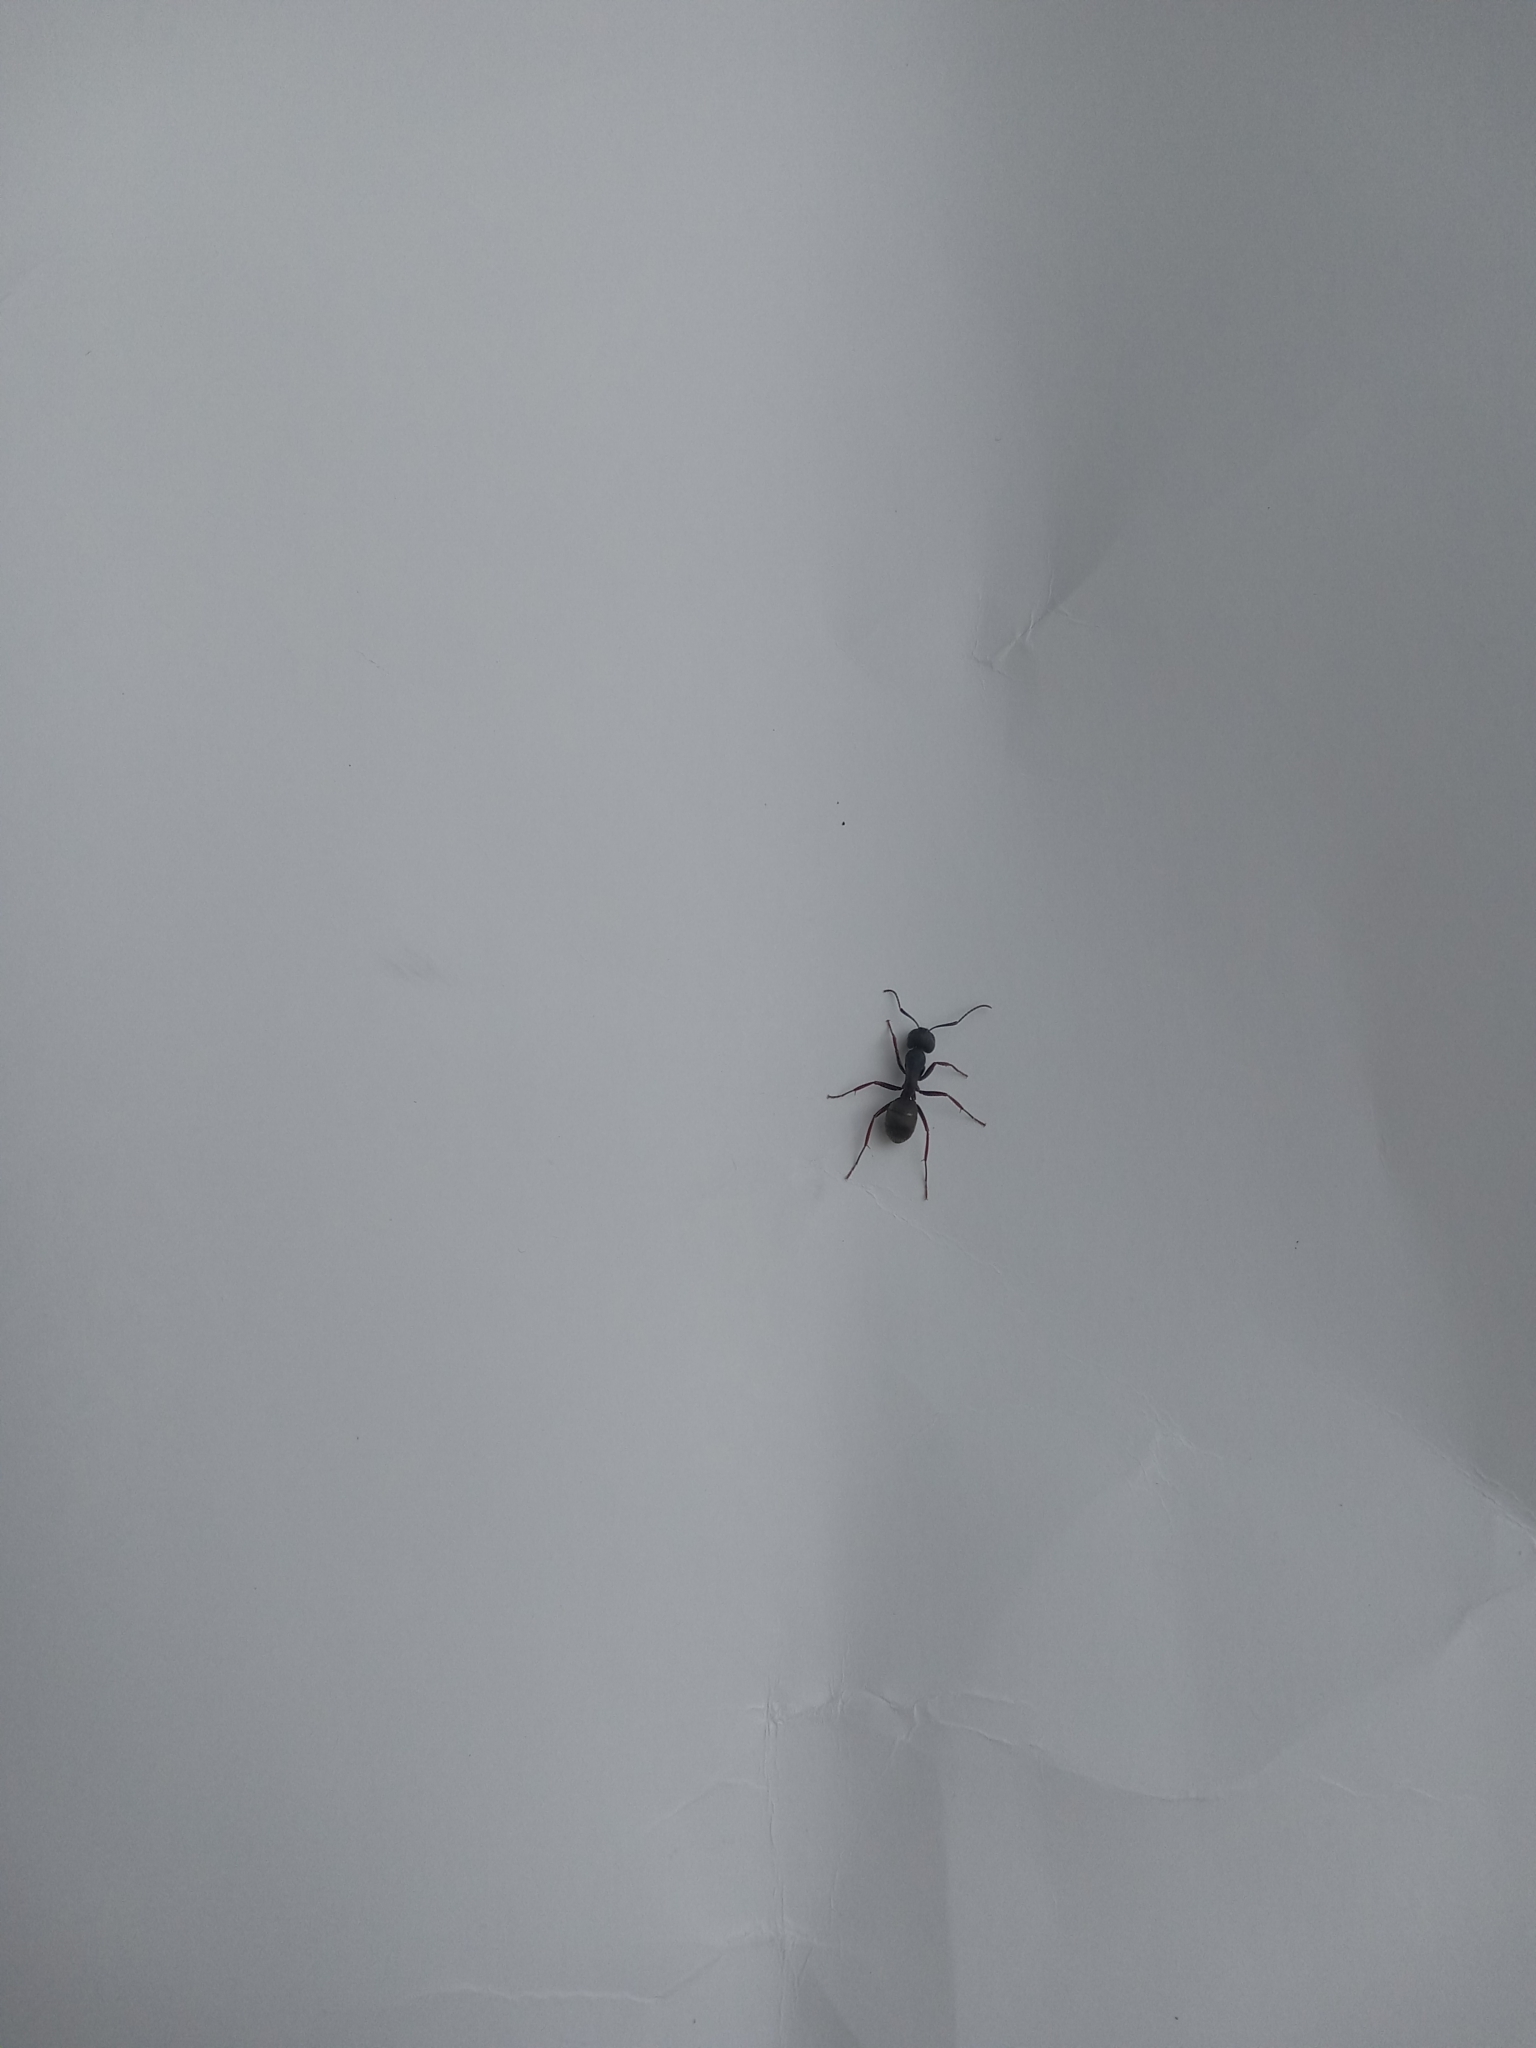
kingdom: Animalia
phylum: Arthropoda
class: Insecta
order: Hymenoptera
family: Formicidae
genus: Camponotus
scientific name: Camponotus modoc
